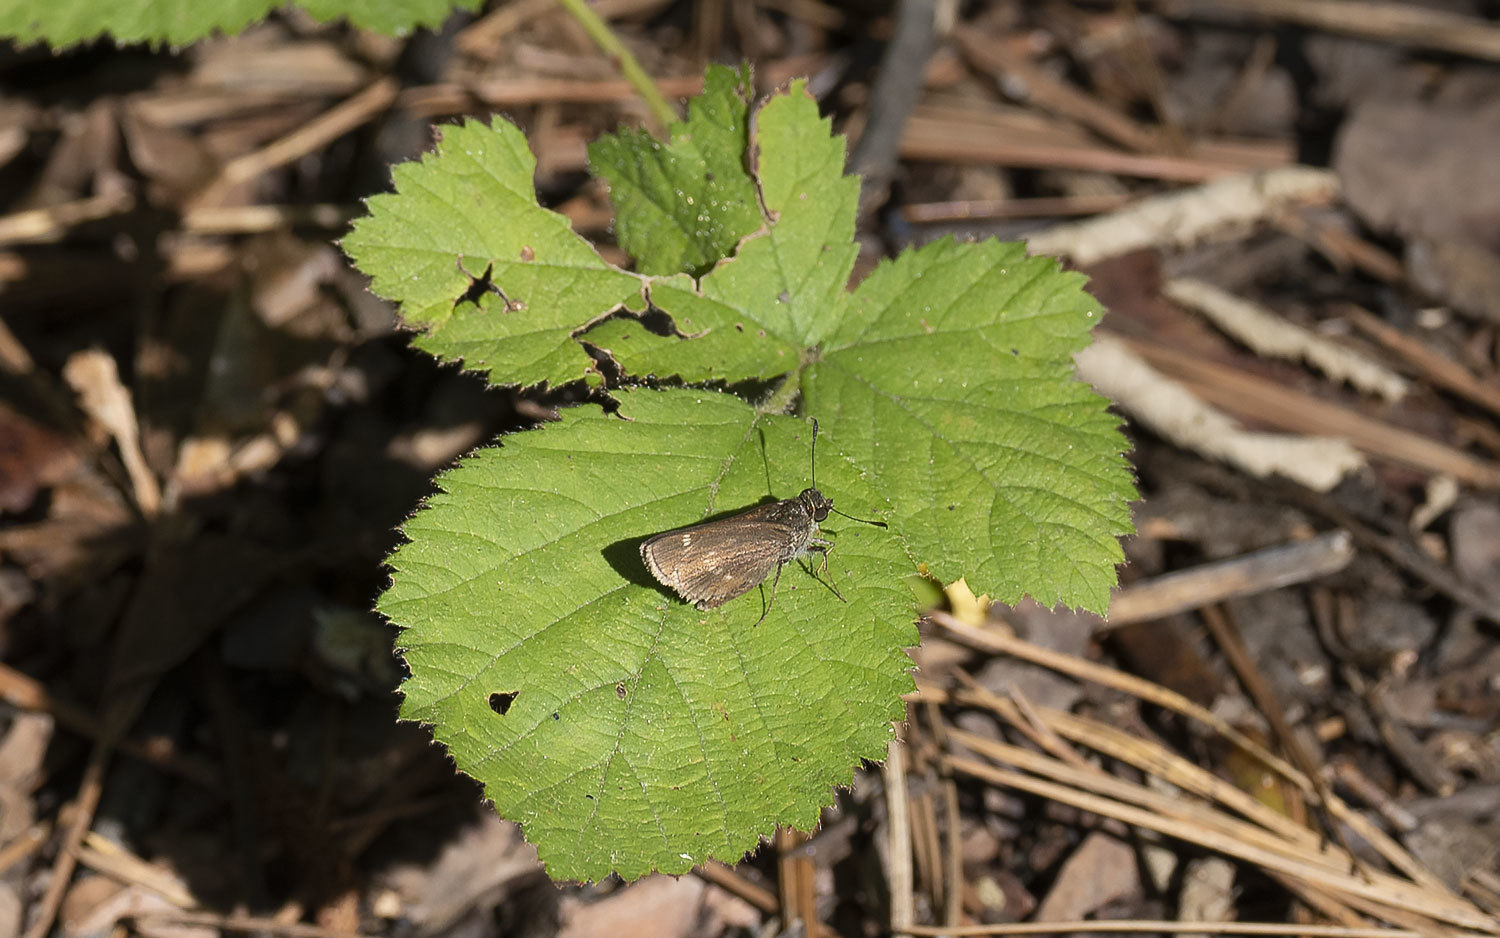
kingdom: Animalia
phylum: Arthropoda
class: Insecta
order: Lepidoptera
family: Hesperiidae
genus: Vernia
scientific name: Vernia verna
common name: Little glassywing
